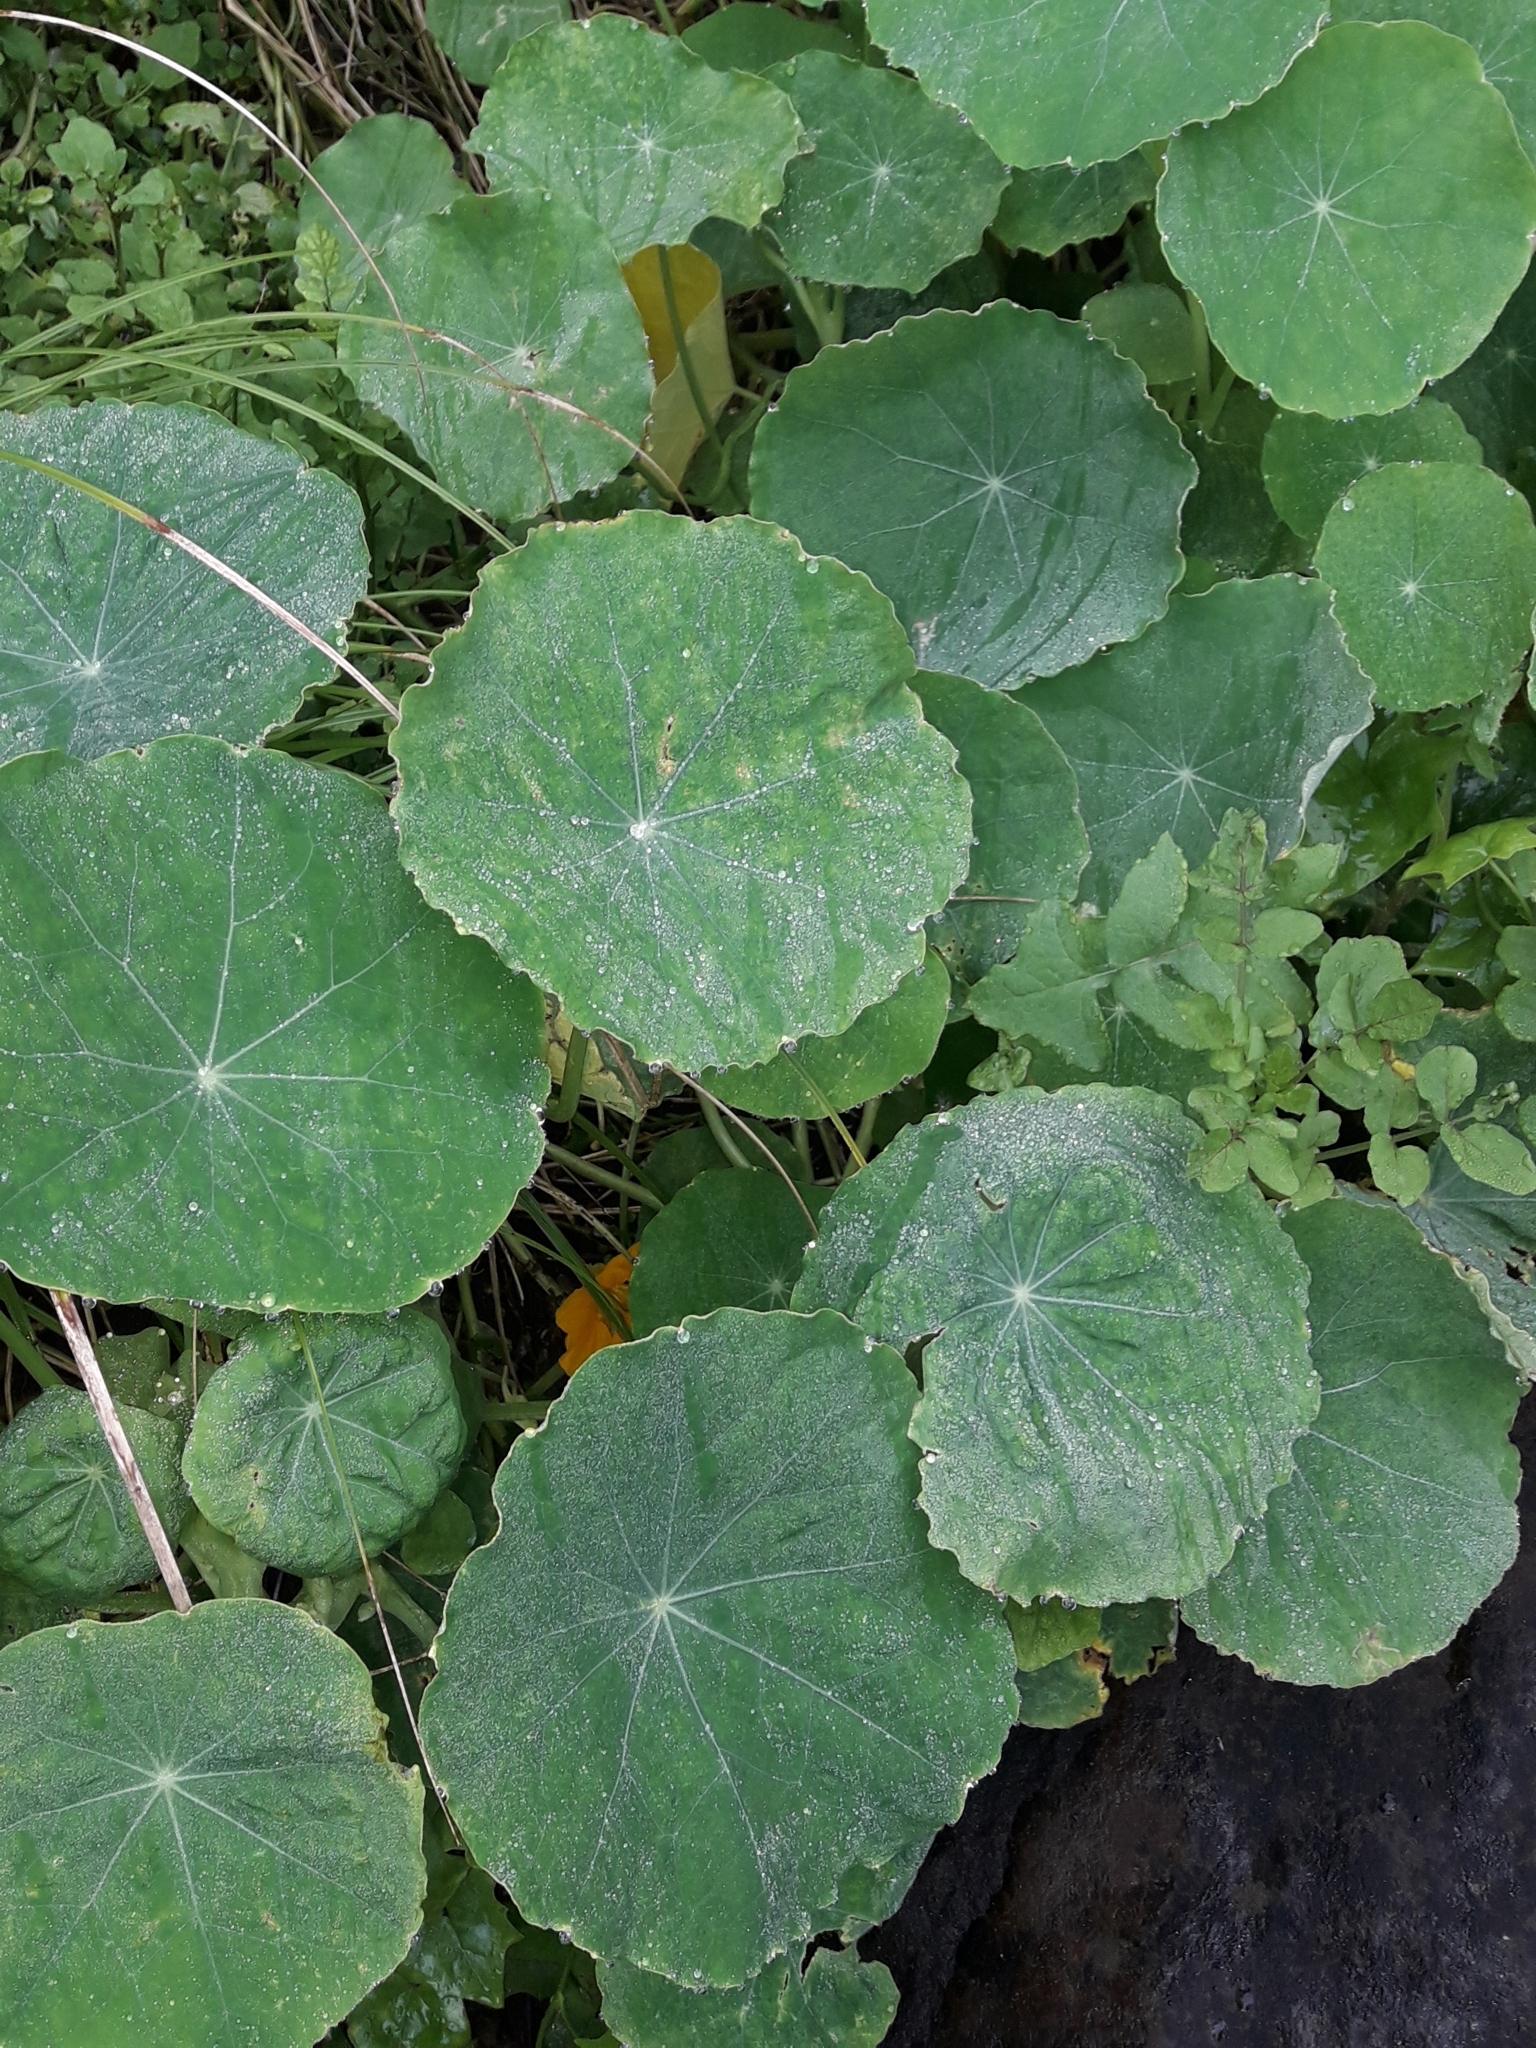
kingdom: Plantae
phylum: Tracheophyta
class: Magnoliopsida
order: Brassicales
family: Tropaeolaceae
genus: Tropaeolum
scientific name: Tropaeolum majus
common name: Nasturtium
